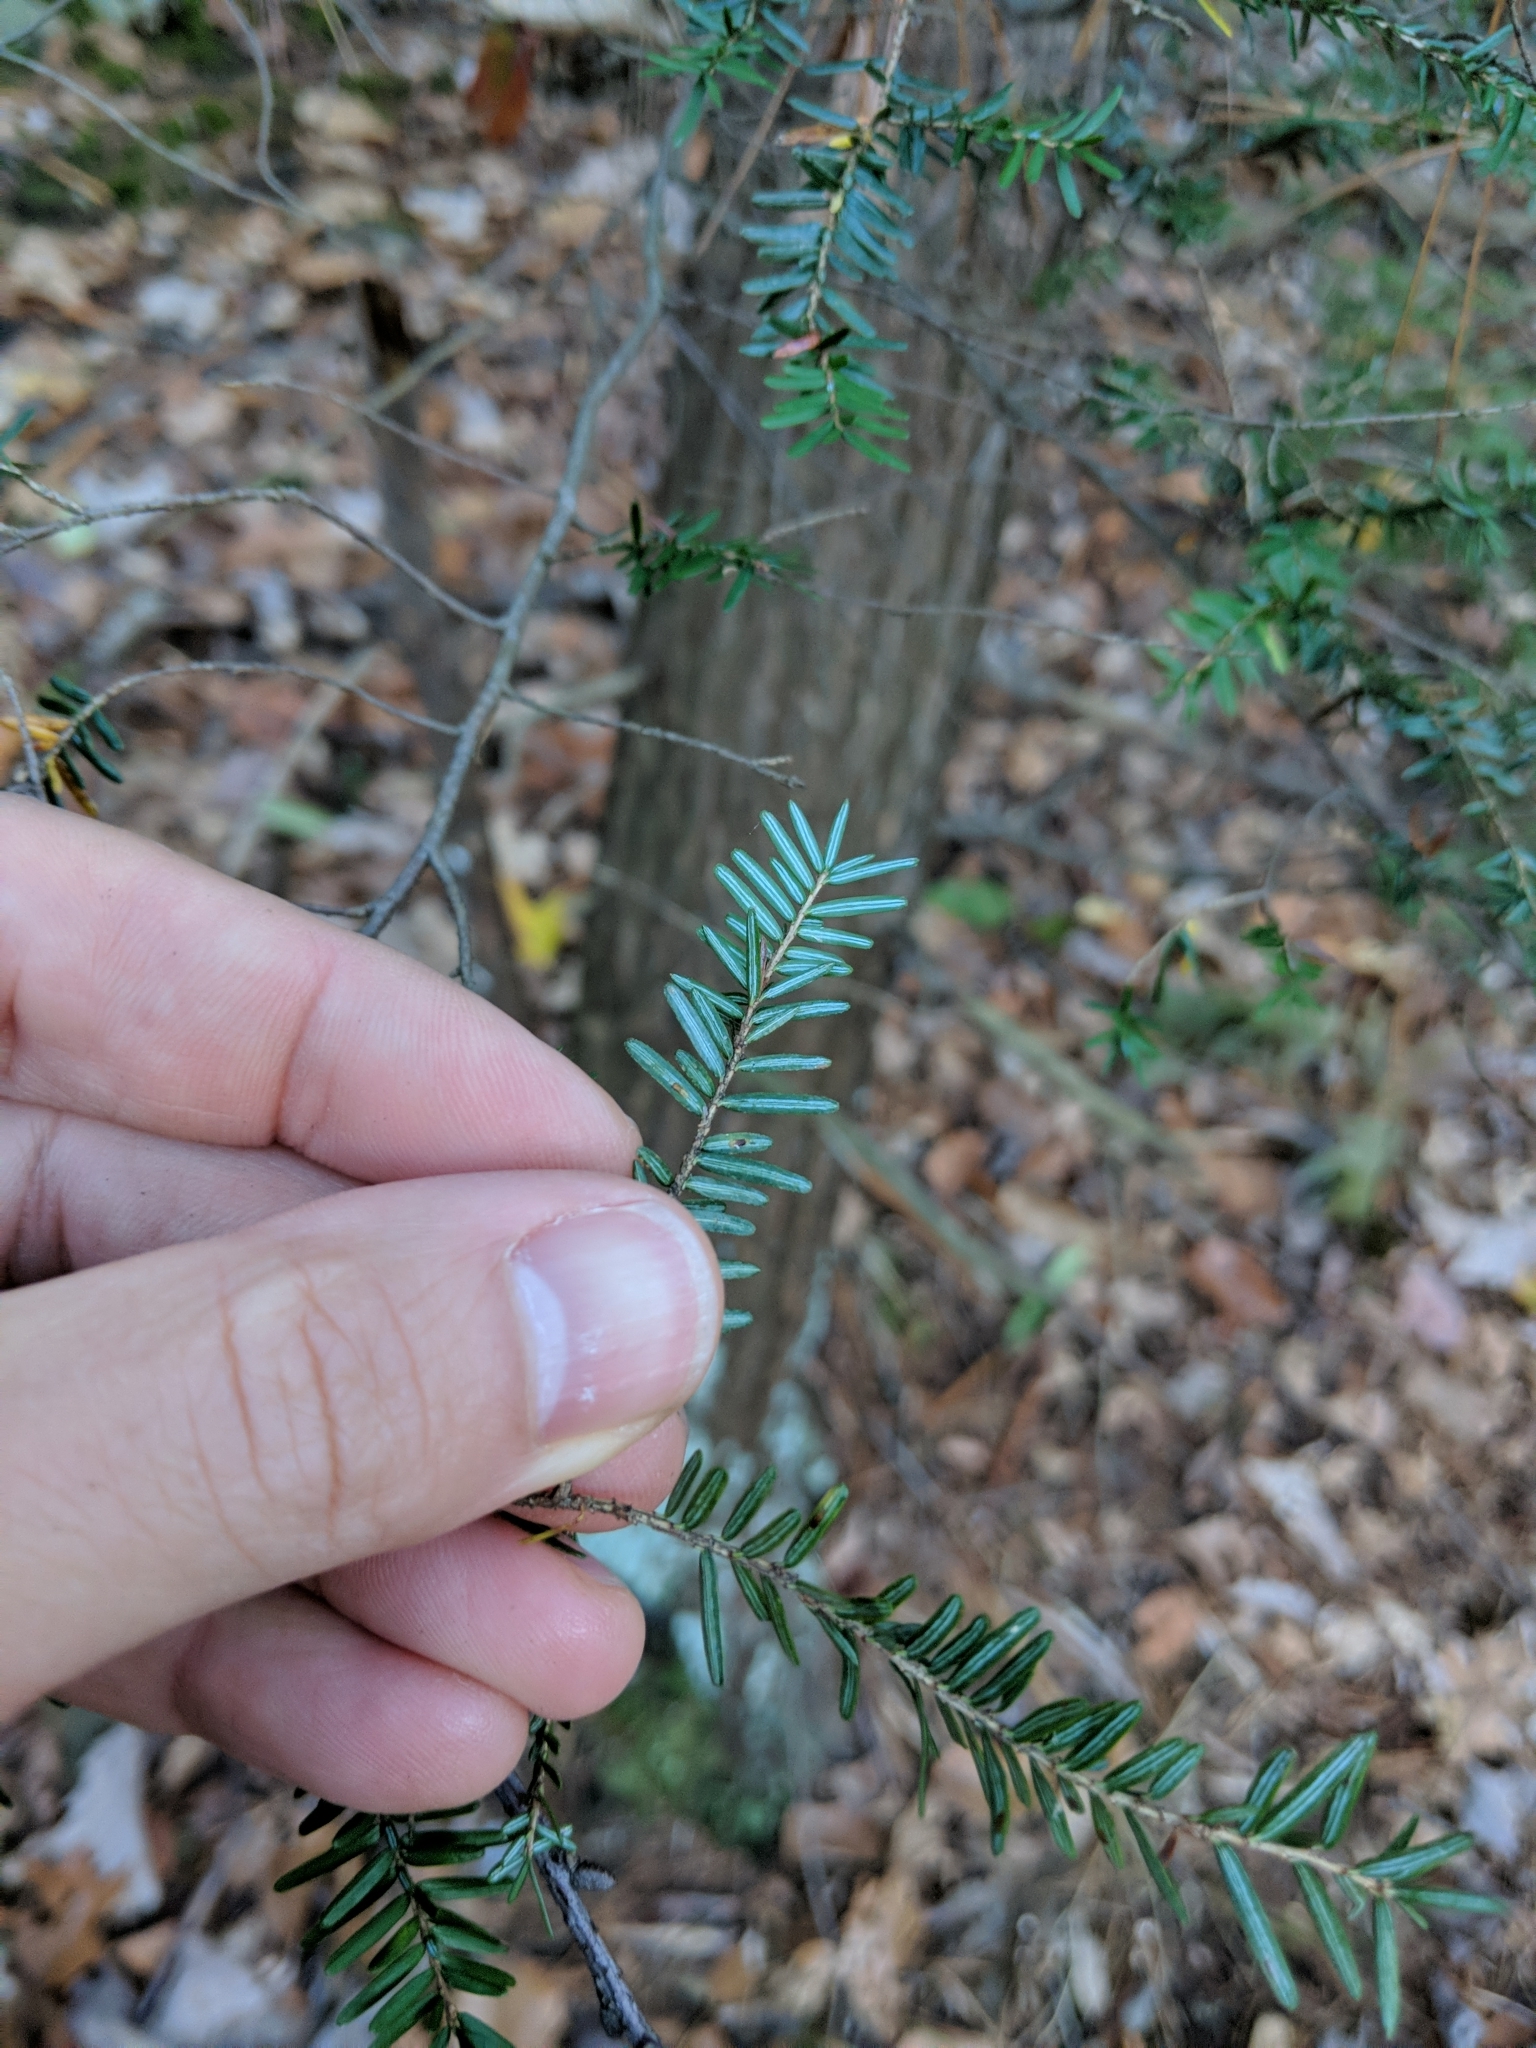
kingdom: Plantae
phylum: Tracheophyta
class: Pinopsida
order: Pinales
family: Pinaceae
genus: Tsuga
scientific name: Tsuga canadensis
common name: Eastern hemlock
